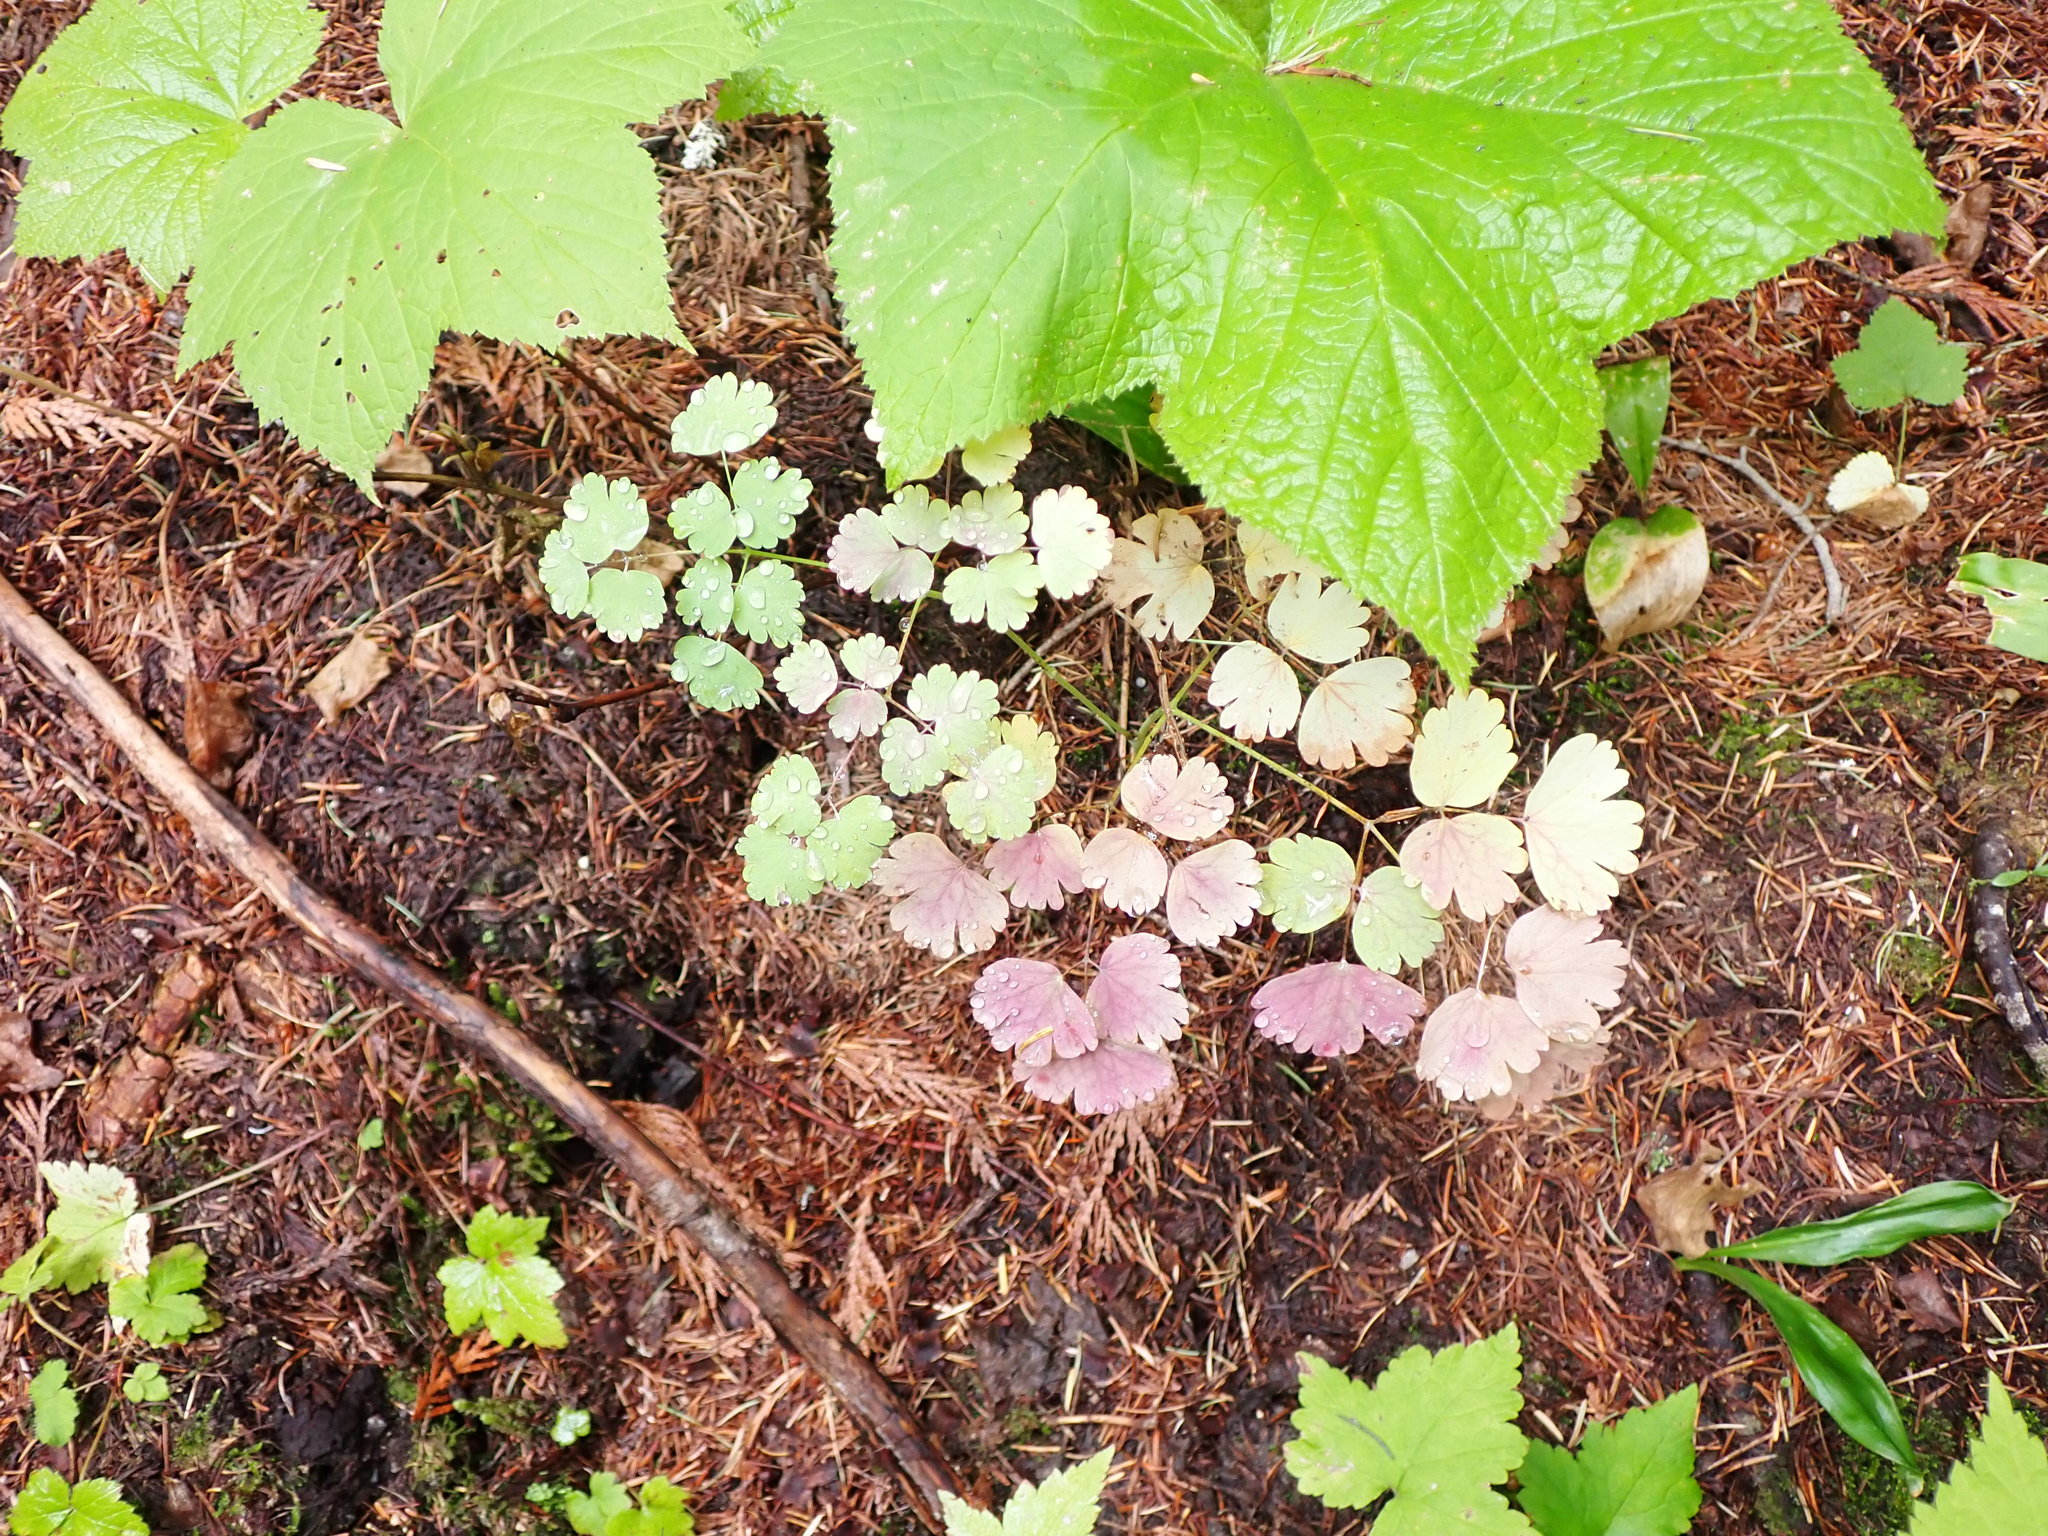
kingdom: Plantae
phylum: Tracheophyta
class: Magnoliopsida
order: Ranunculales
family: Ranunculaceae
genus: Thalictrum
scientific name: Thalictrum occidentale
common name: Western meadow-rue
